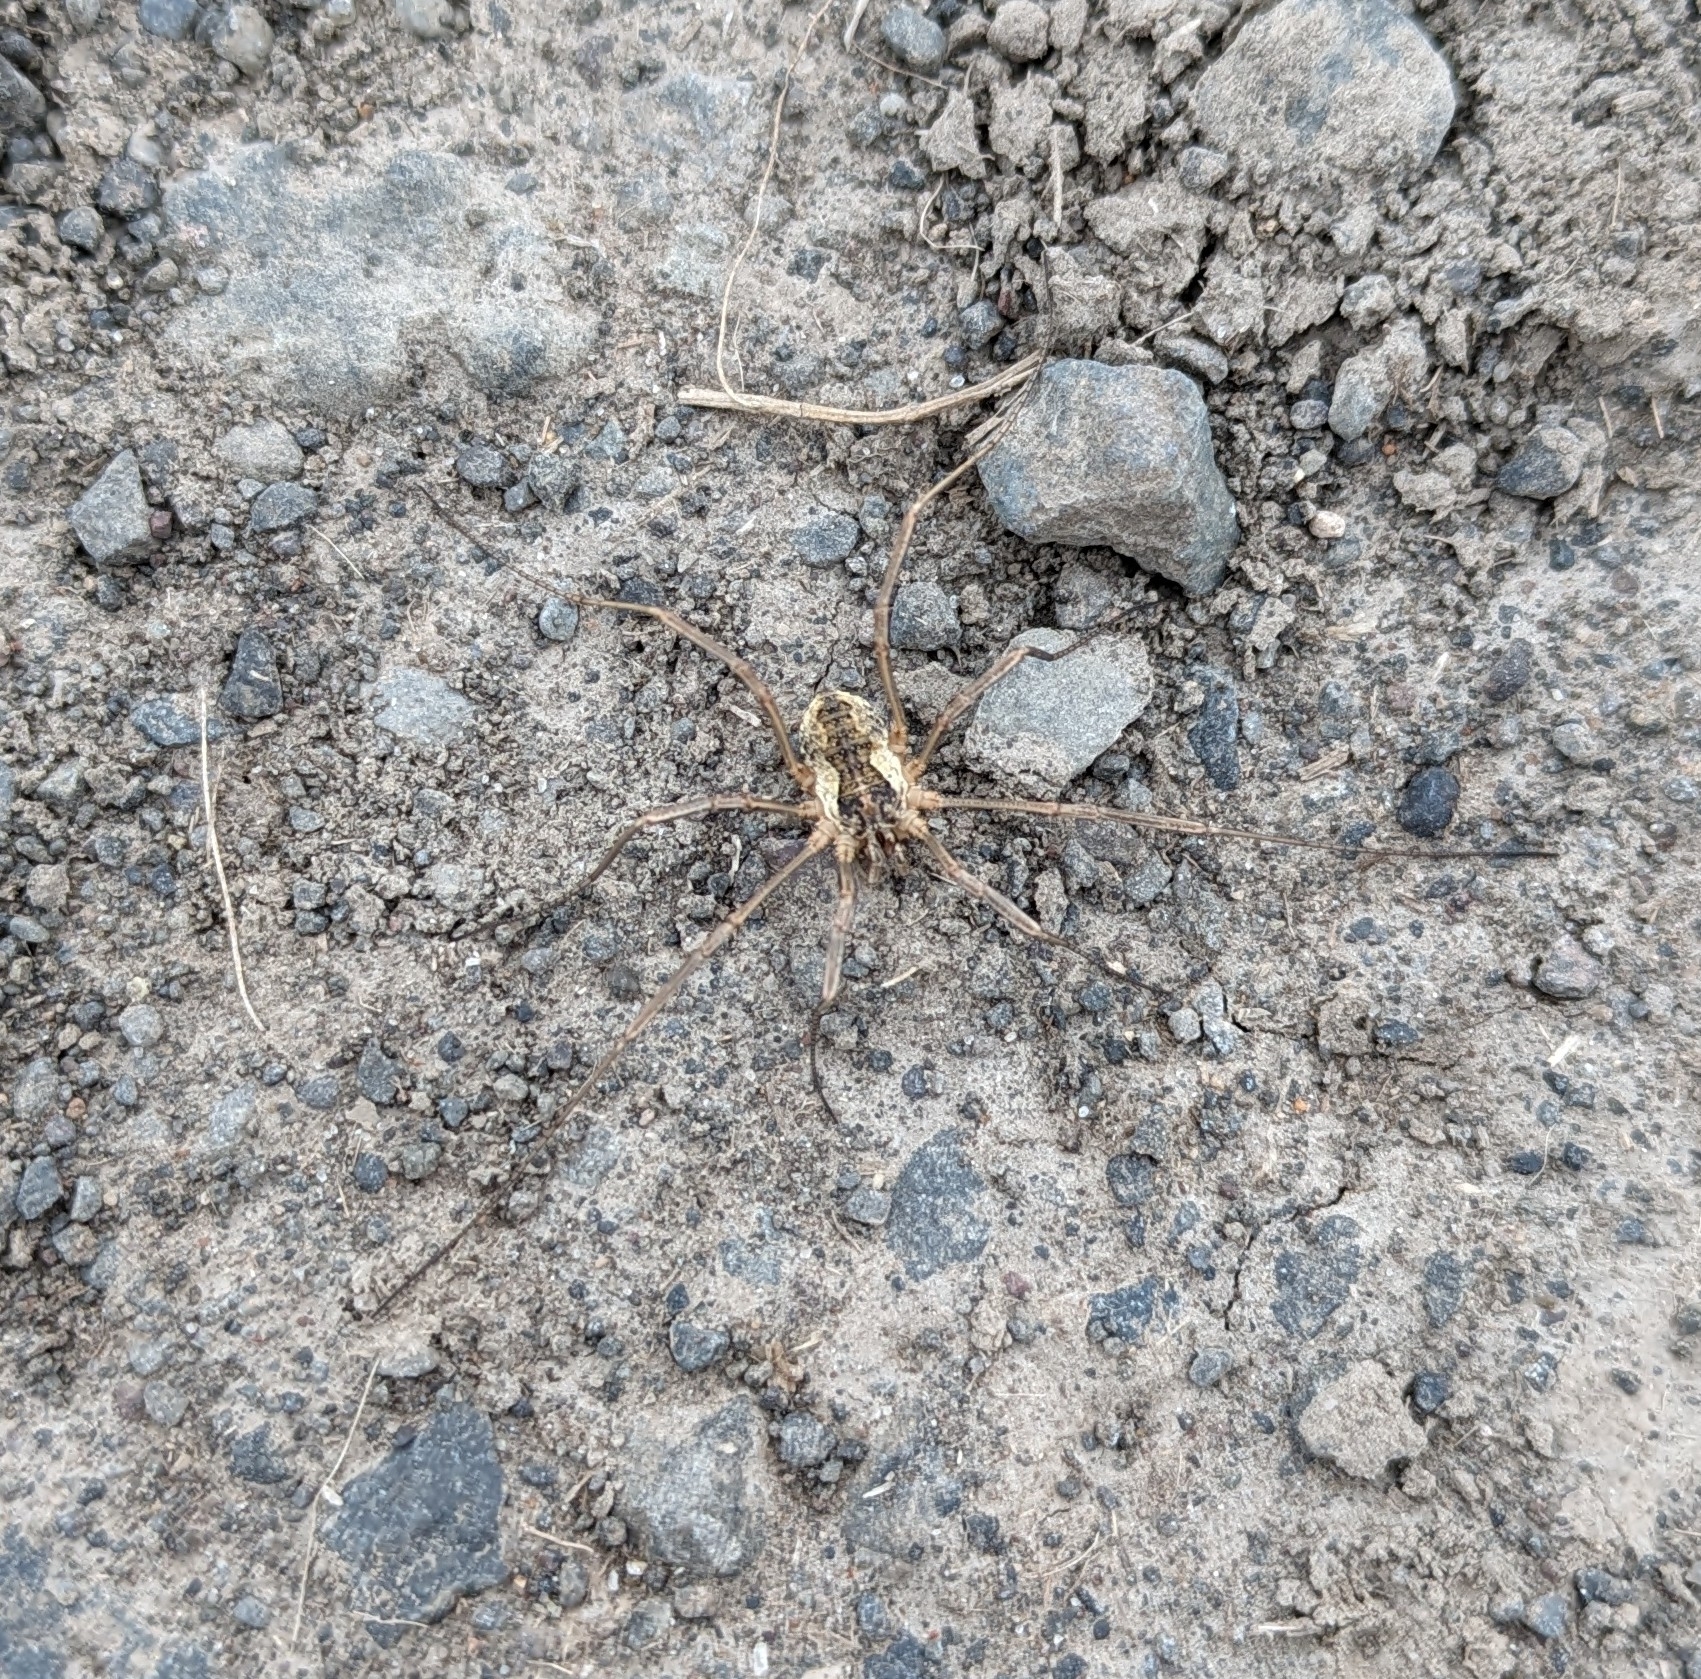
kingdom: Animalia
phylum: Arthropoda
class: Arachnida
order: Opiliones
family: Phalangiidae
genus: Mitopus
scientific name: Mitopus morio
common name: Saddleback harvestman
